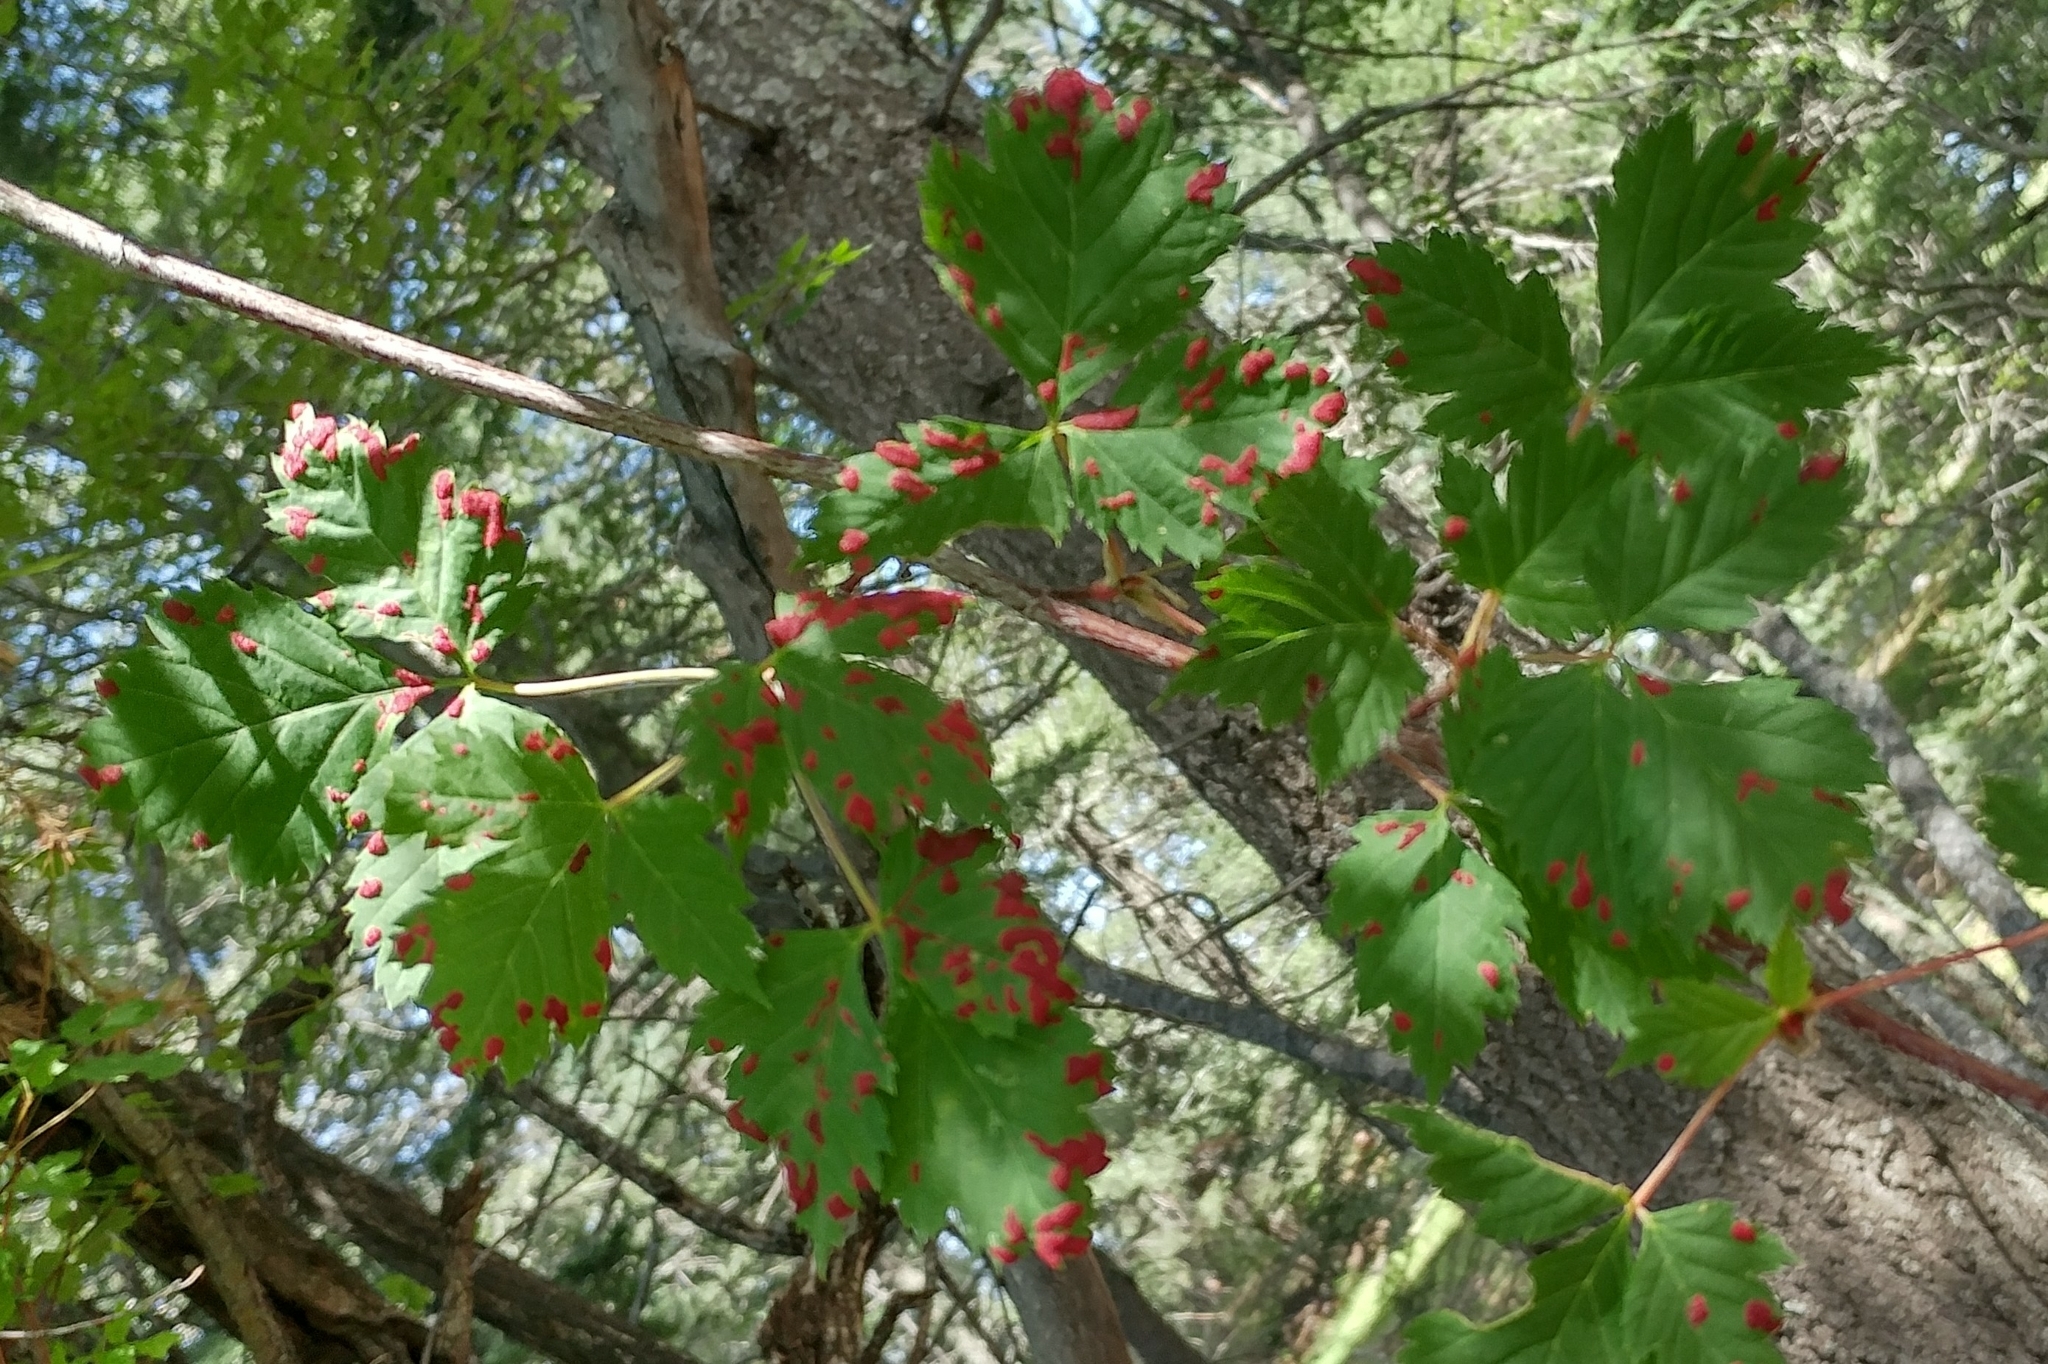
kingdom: Animalia
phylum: Arthropoda
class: Arachnida
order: Trombidiformes
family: Eriophyidae
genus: Aceria
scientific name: Aceria
